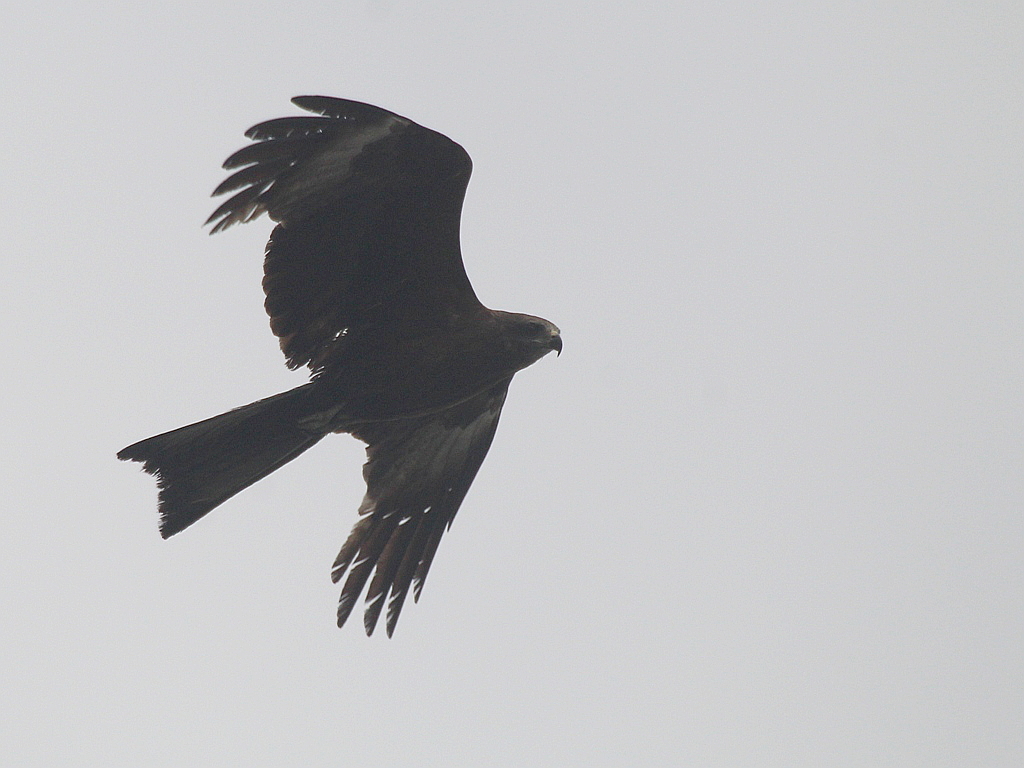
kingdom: Animalia
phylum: Chordata
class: Aves
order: Accipitriformes
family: Accipitridae
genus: Milvus
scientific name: Milvus migrans
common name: Black kite
